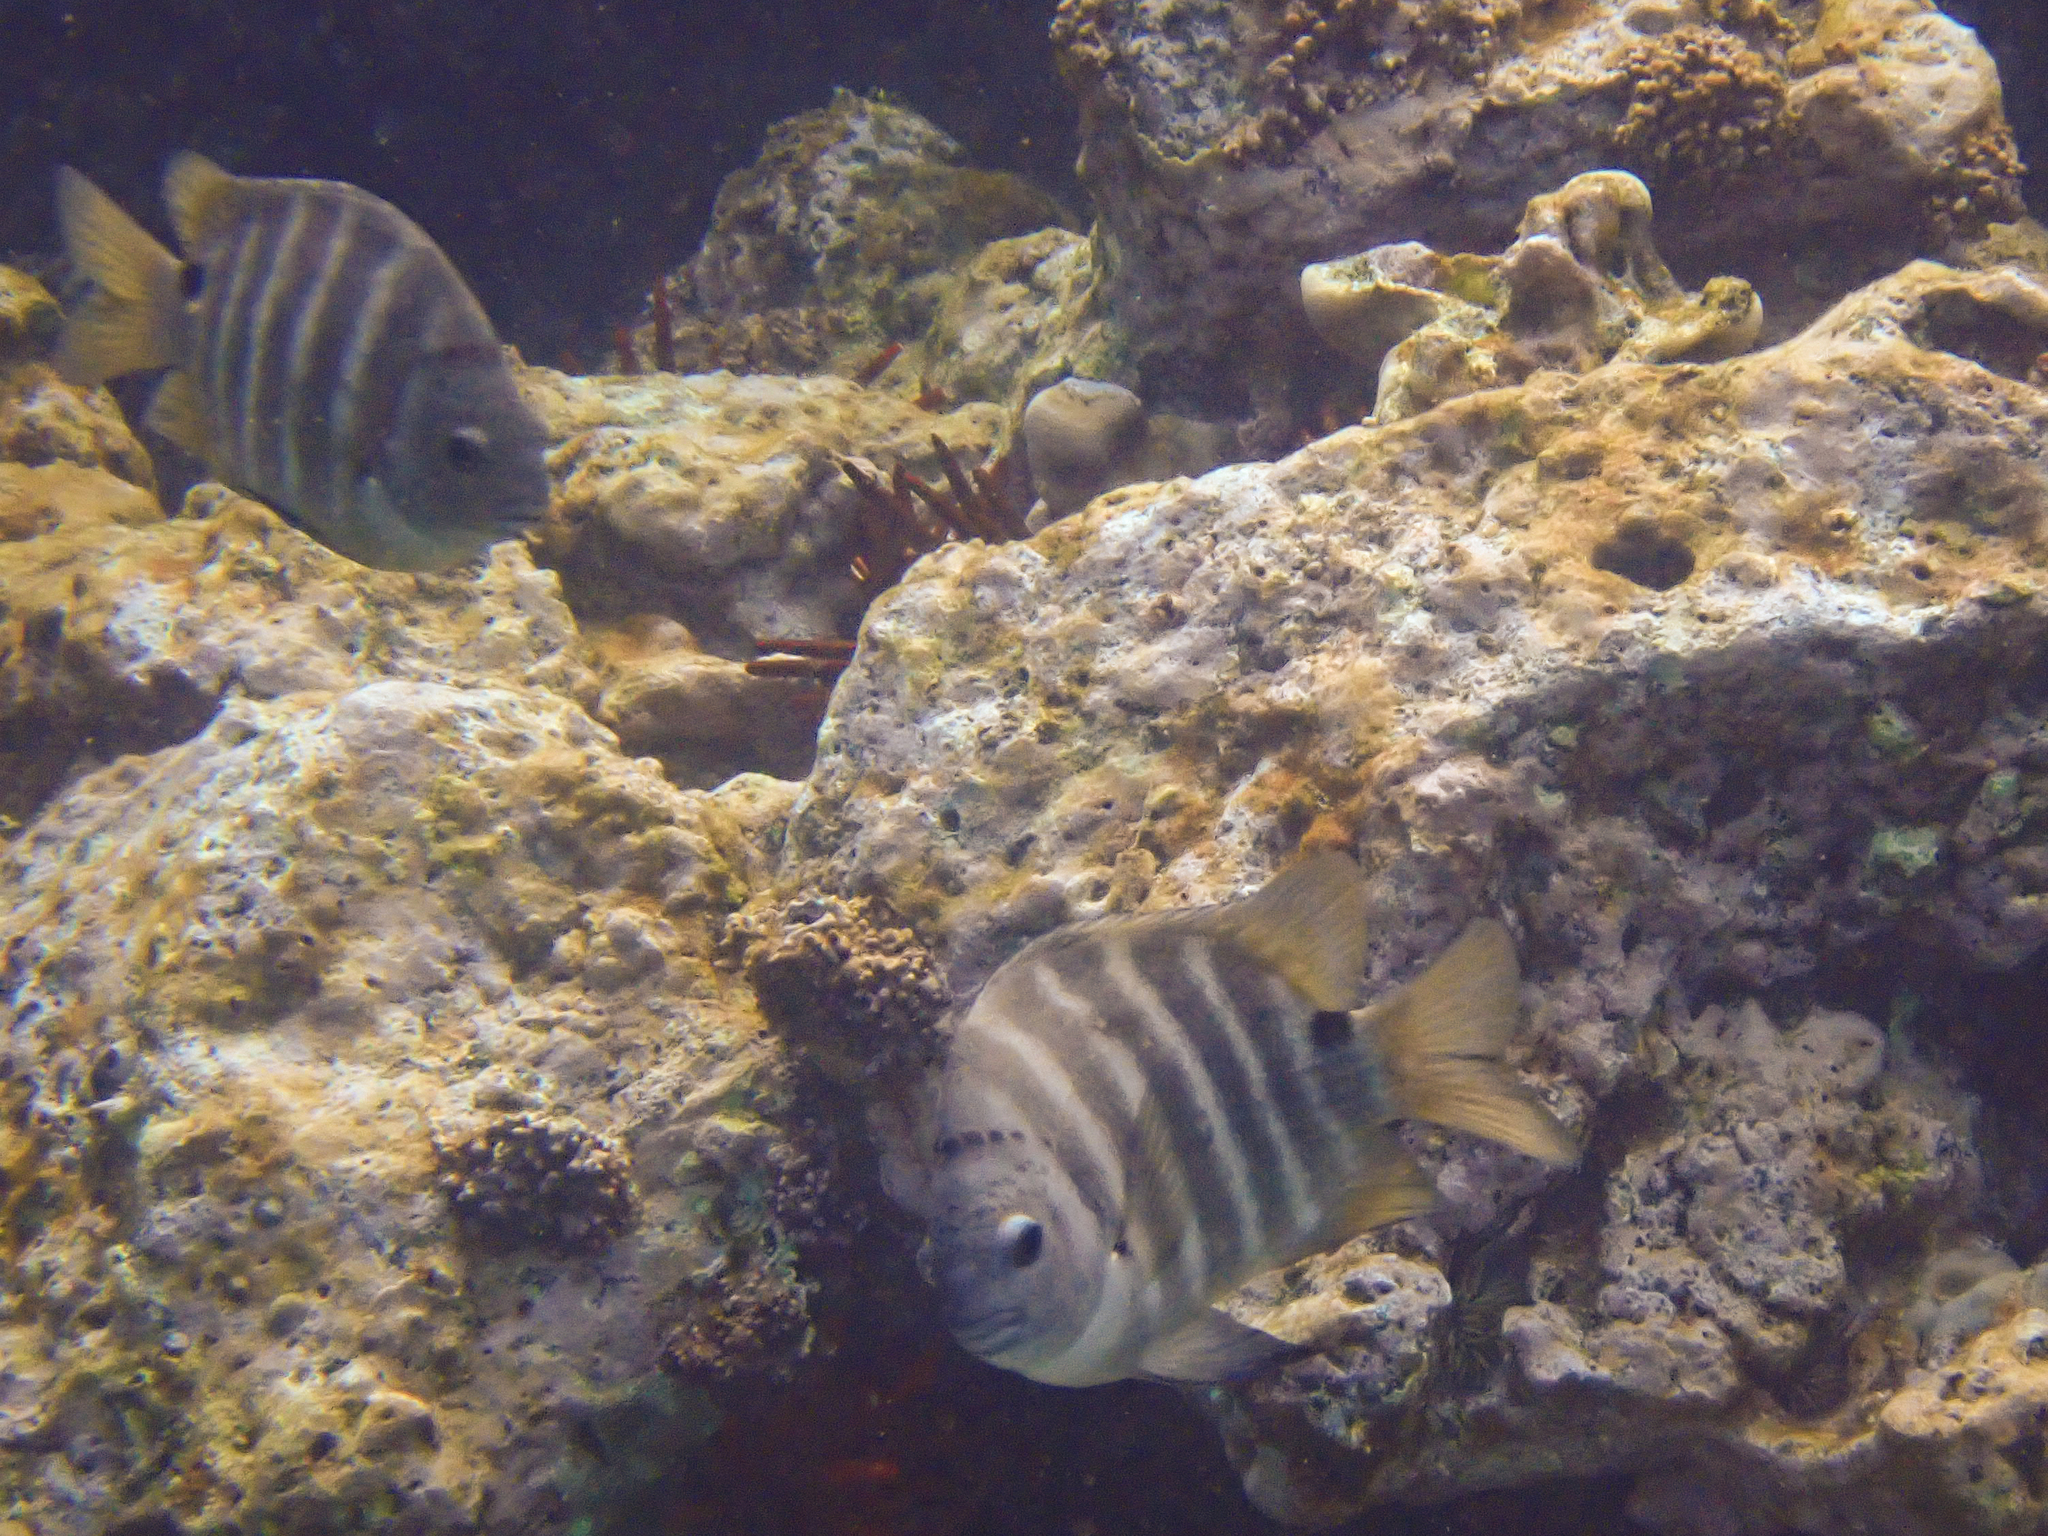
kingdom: Animalia
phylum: Chordata
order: Perciformes
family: Pomacentridae
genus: Abudefduf
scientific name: Abudefduf sordidus
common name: Blackspot sergeant
